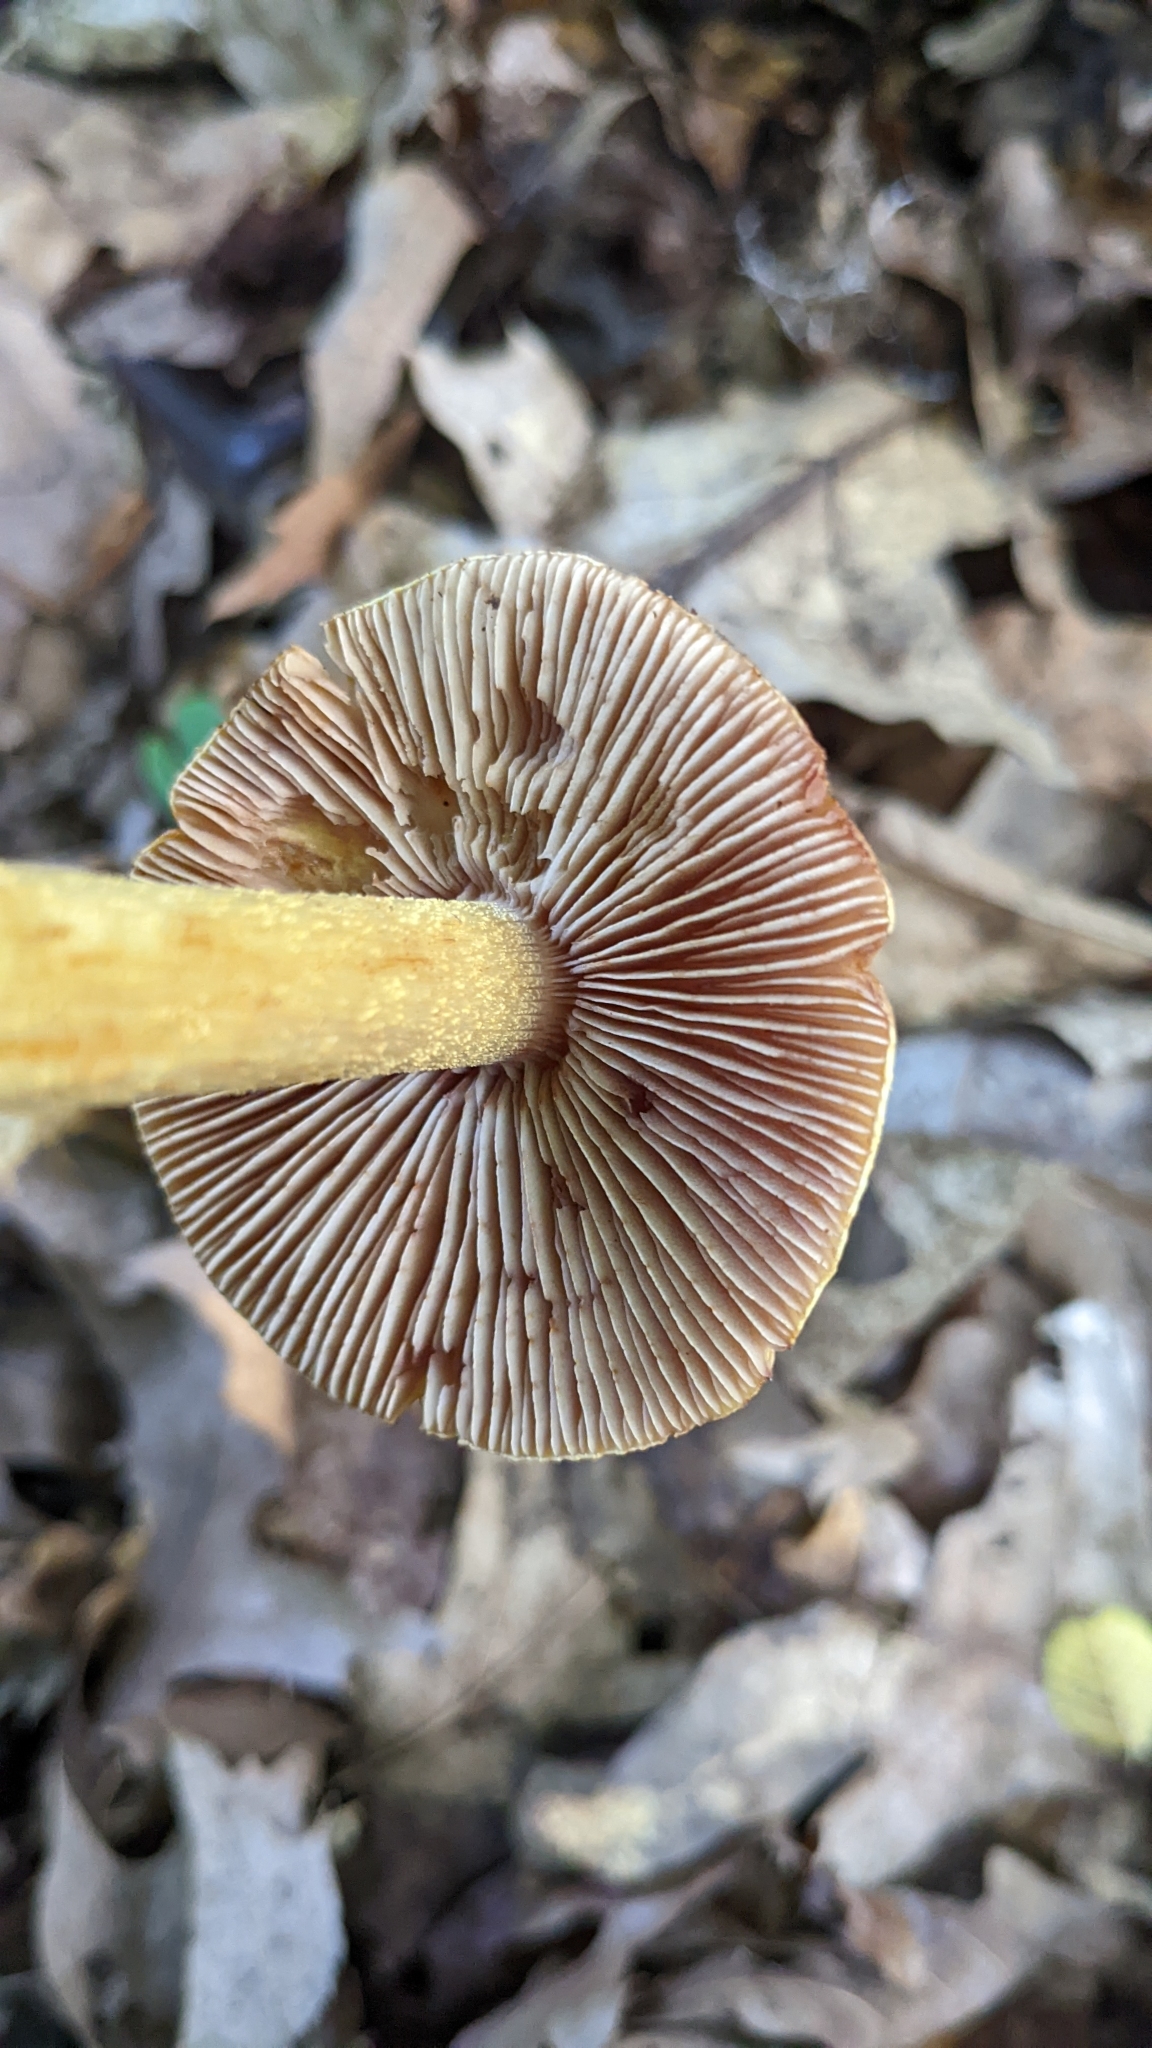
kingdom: Fungi
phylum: Basidiomycota
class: Agaricomycetes
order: Agaricales
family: Cortinariaceae
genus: Cortinarius
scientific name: Cortinarius corrugatus
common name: Wrinkled cortinarius
